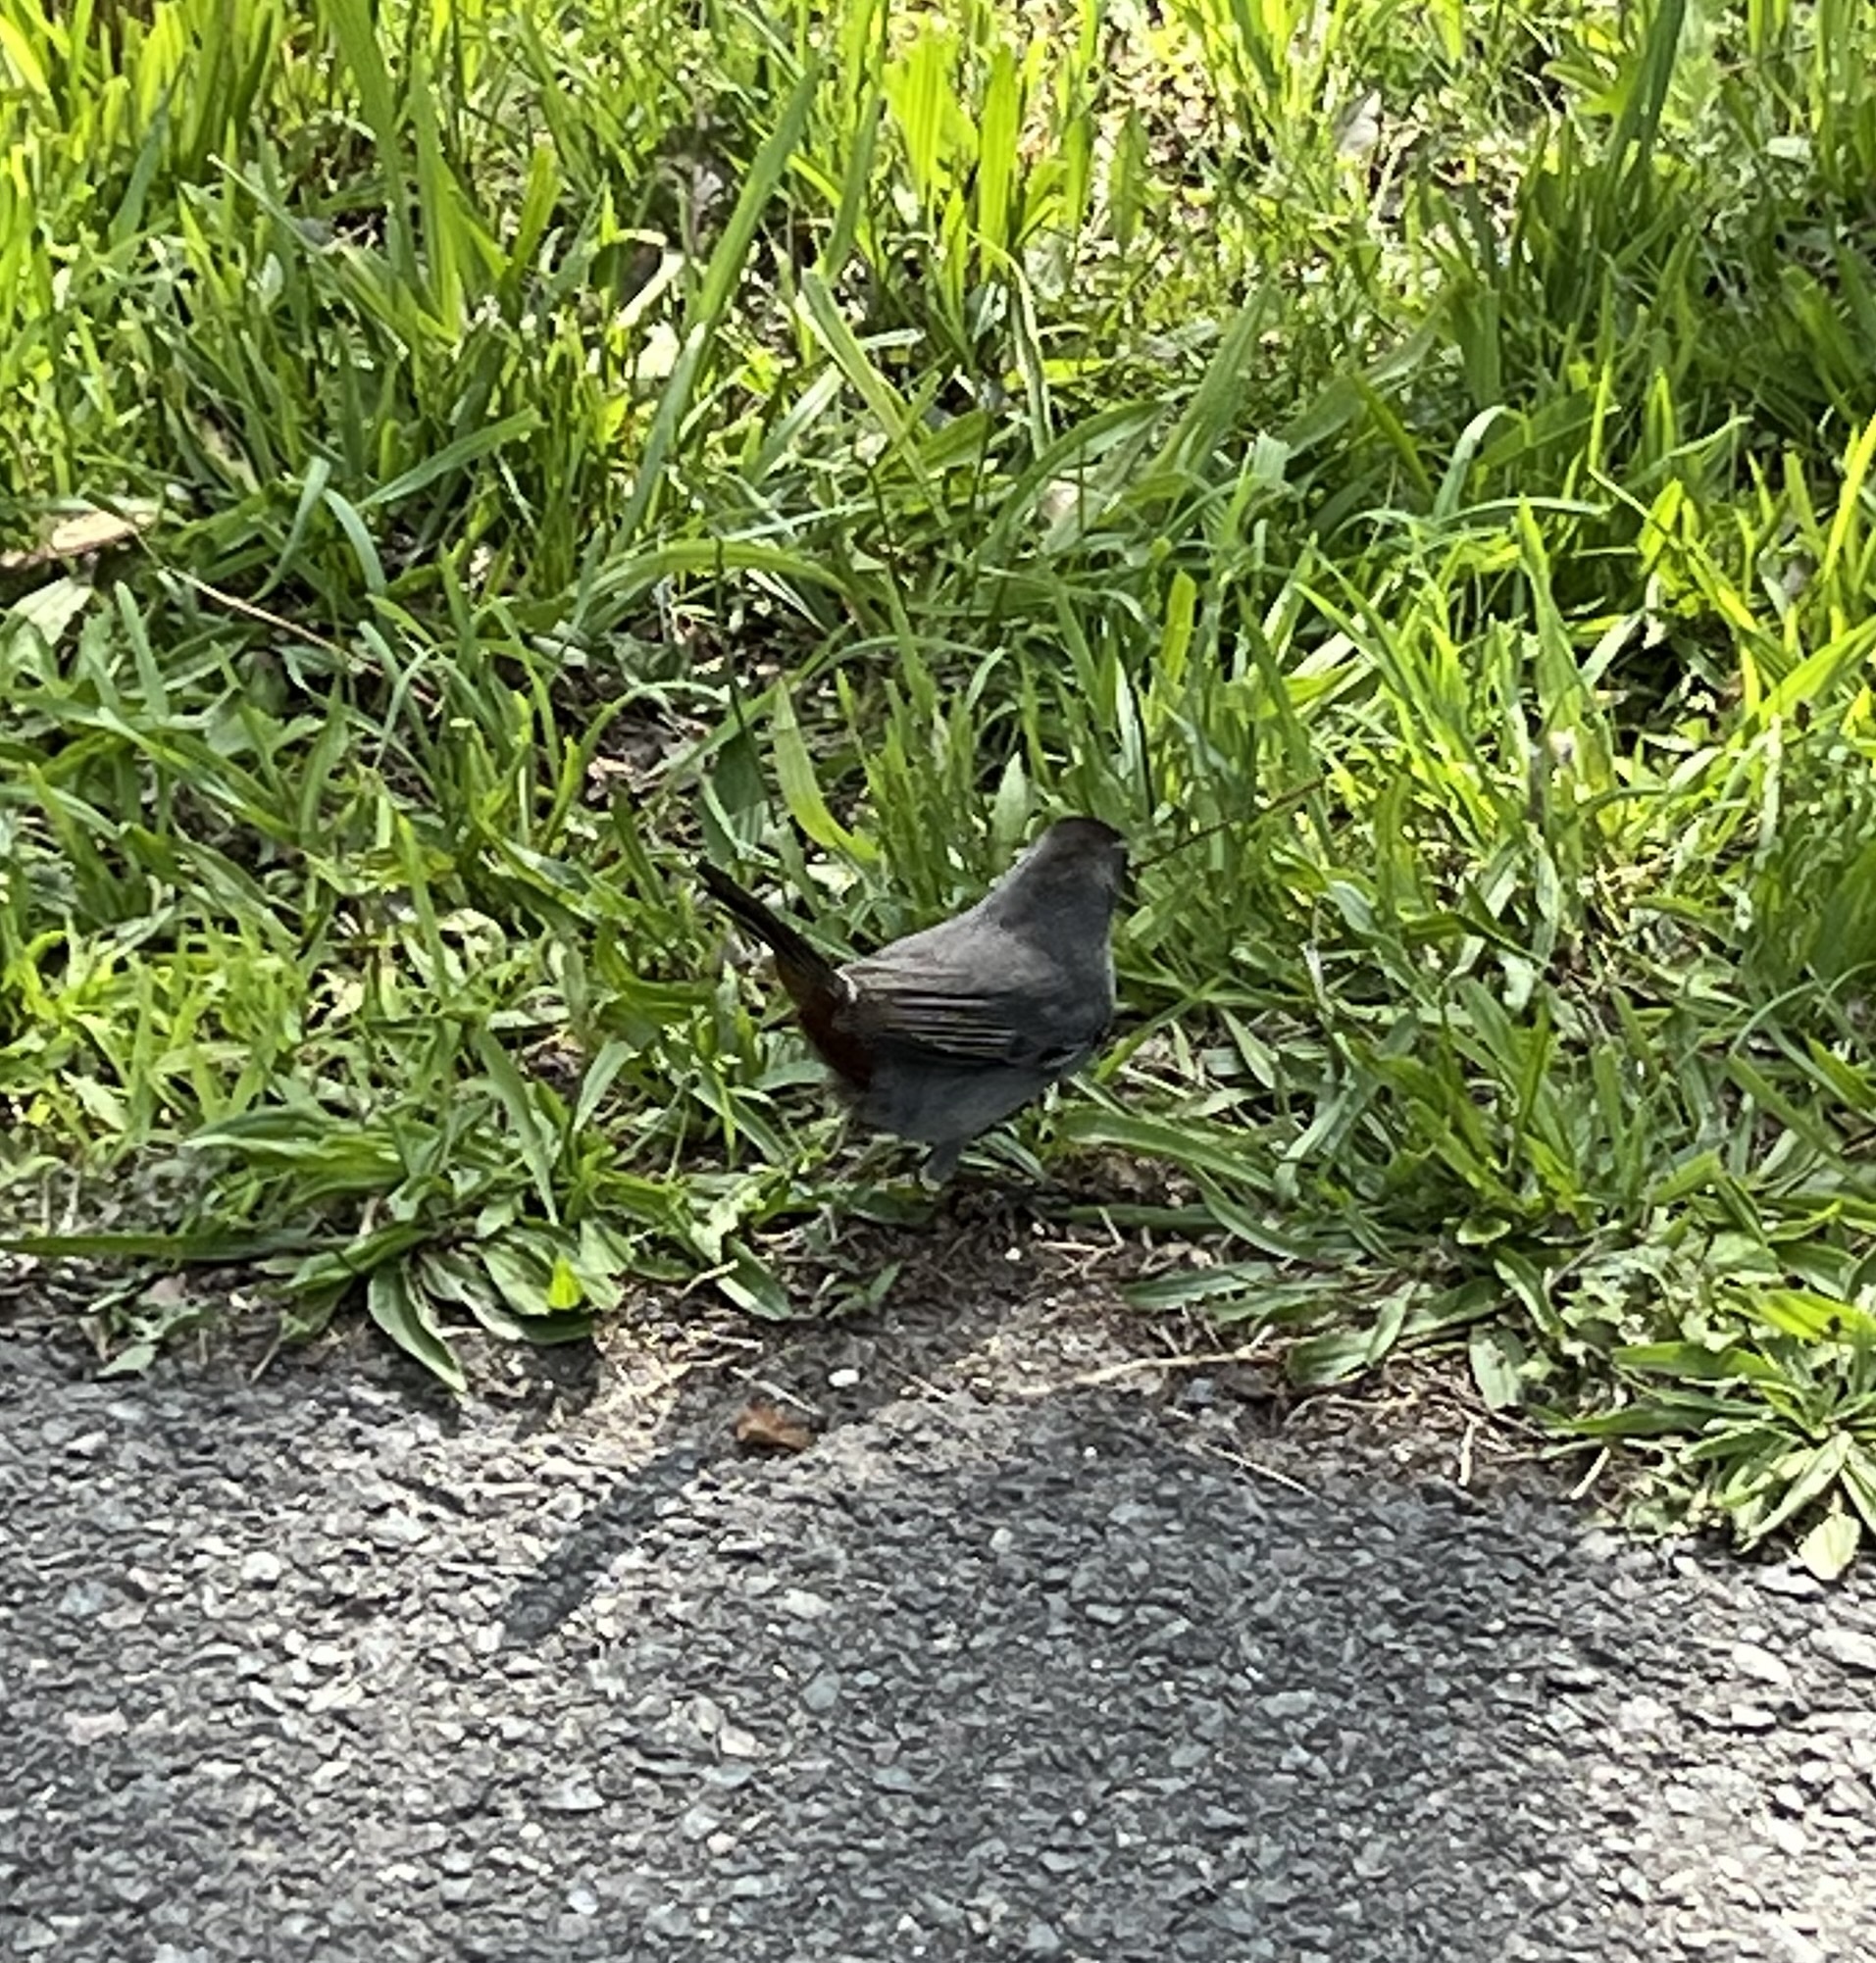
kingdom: Animalia
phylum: Chordata
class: Aves
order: Passeriformes
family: Mimidae
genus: Dumetella
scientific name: Dumetella carolinensis
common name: Gray catbird
